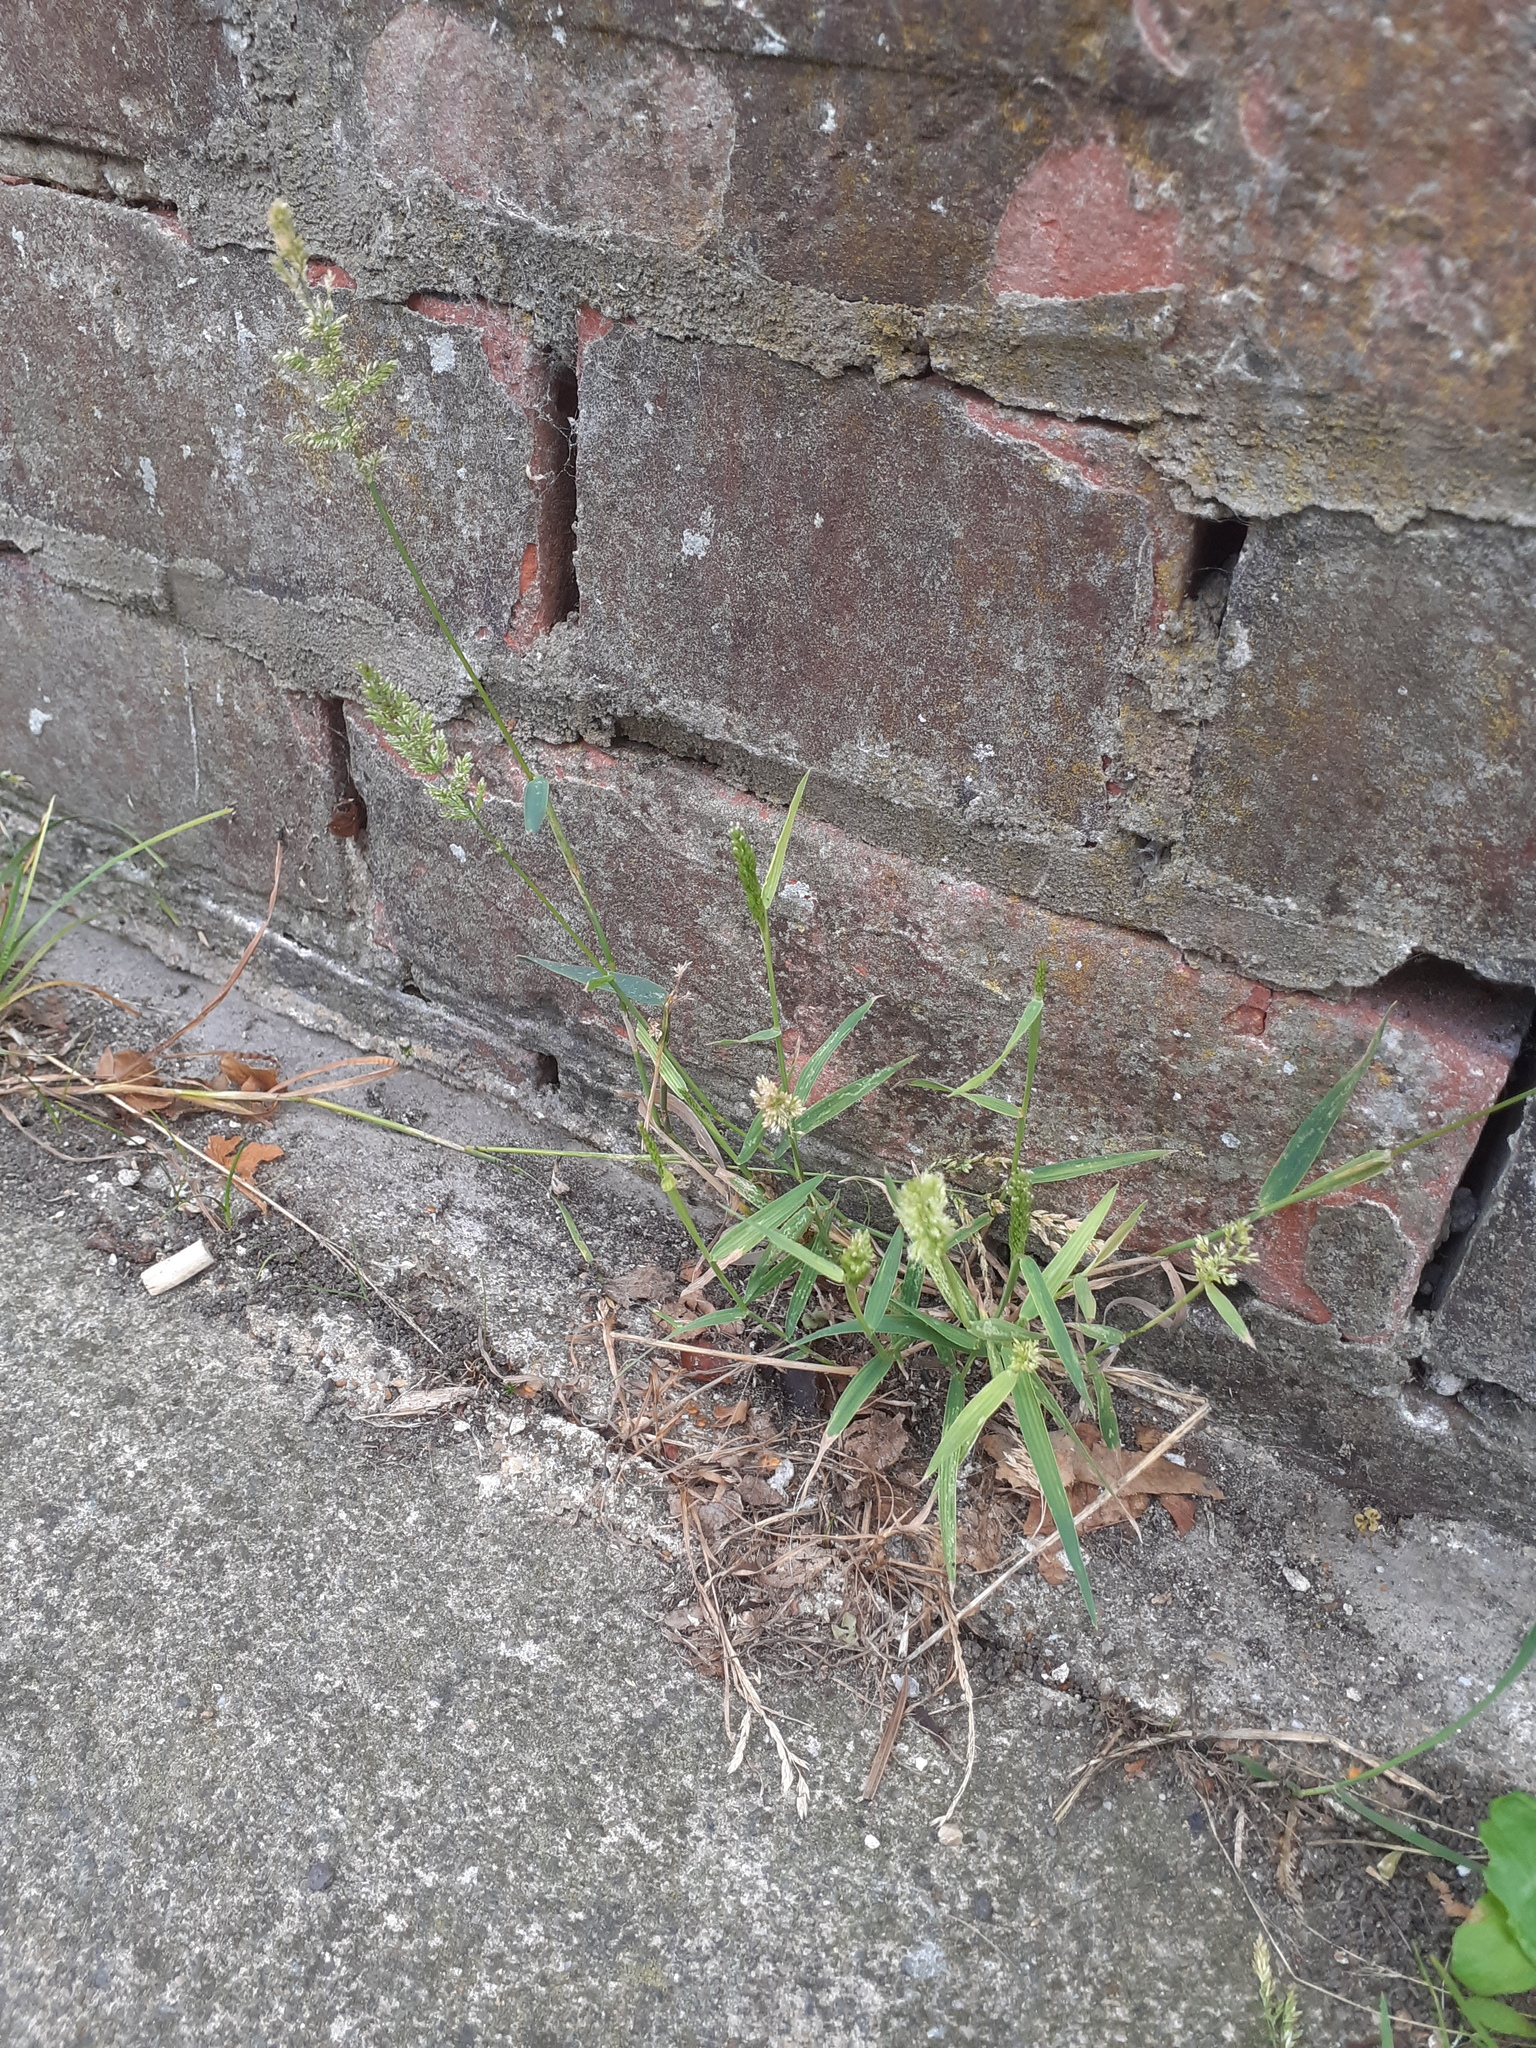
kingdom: Plantae
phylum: Tracheophyta
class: Liliopsida
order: Poales
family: Poaceae
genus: Polypogon
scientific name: Polypogon viridis
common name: Water bent
